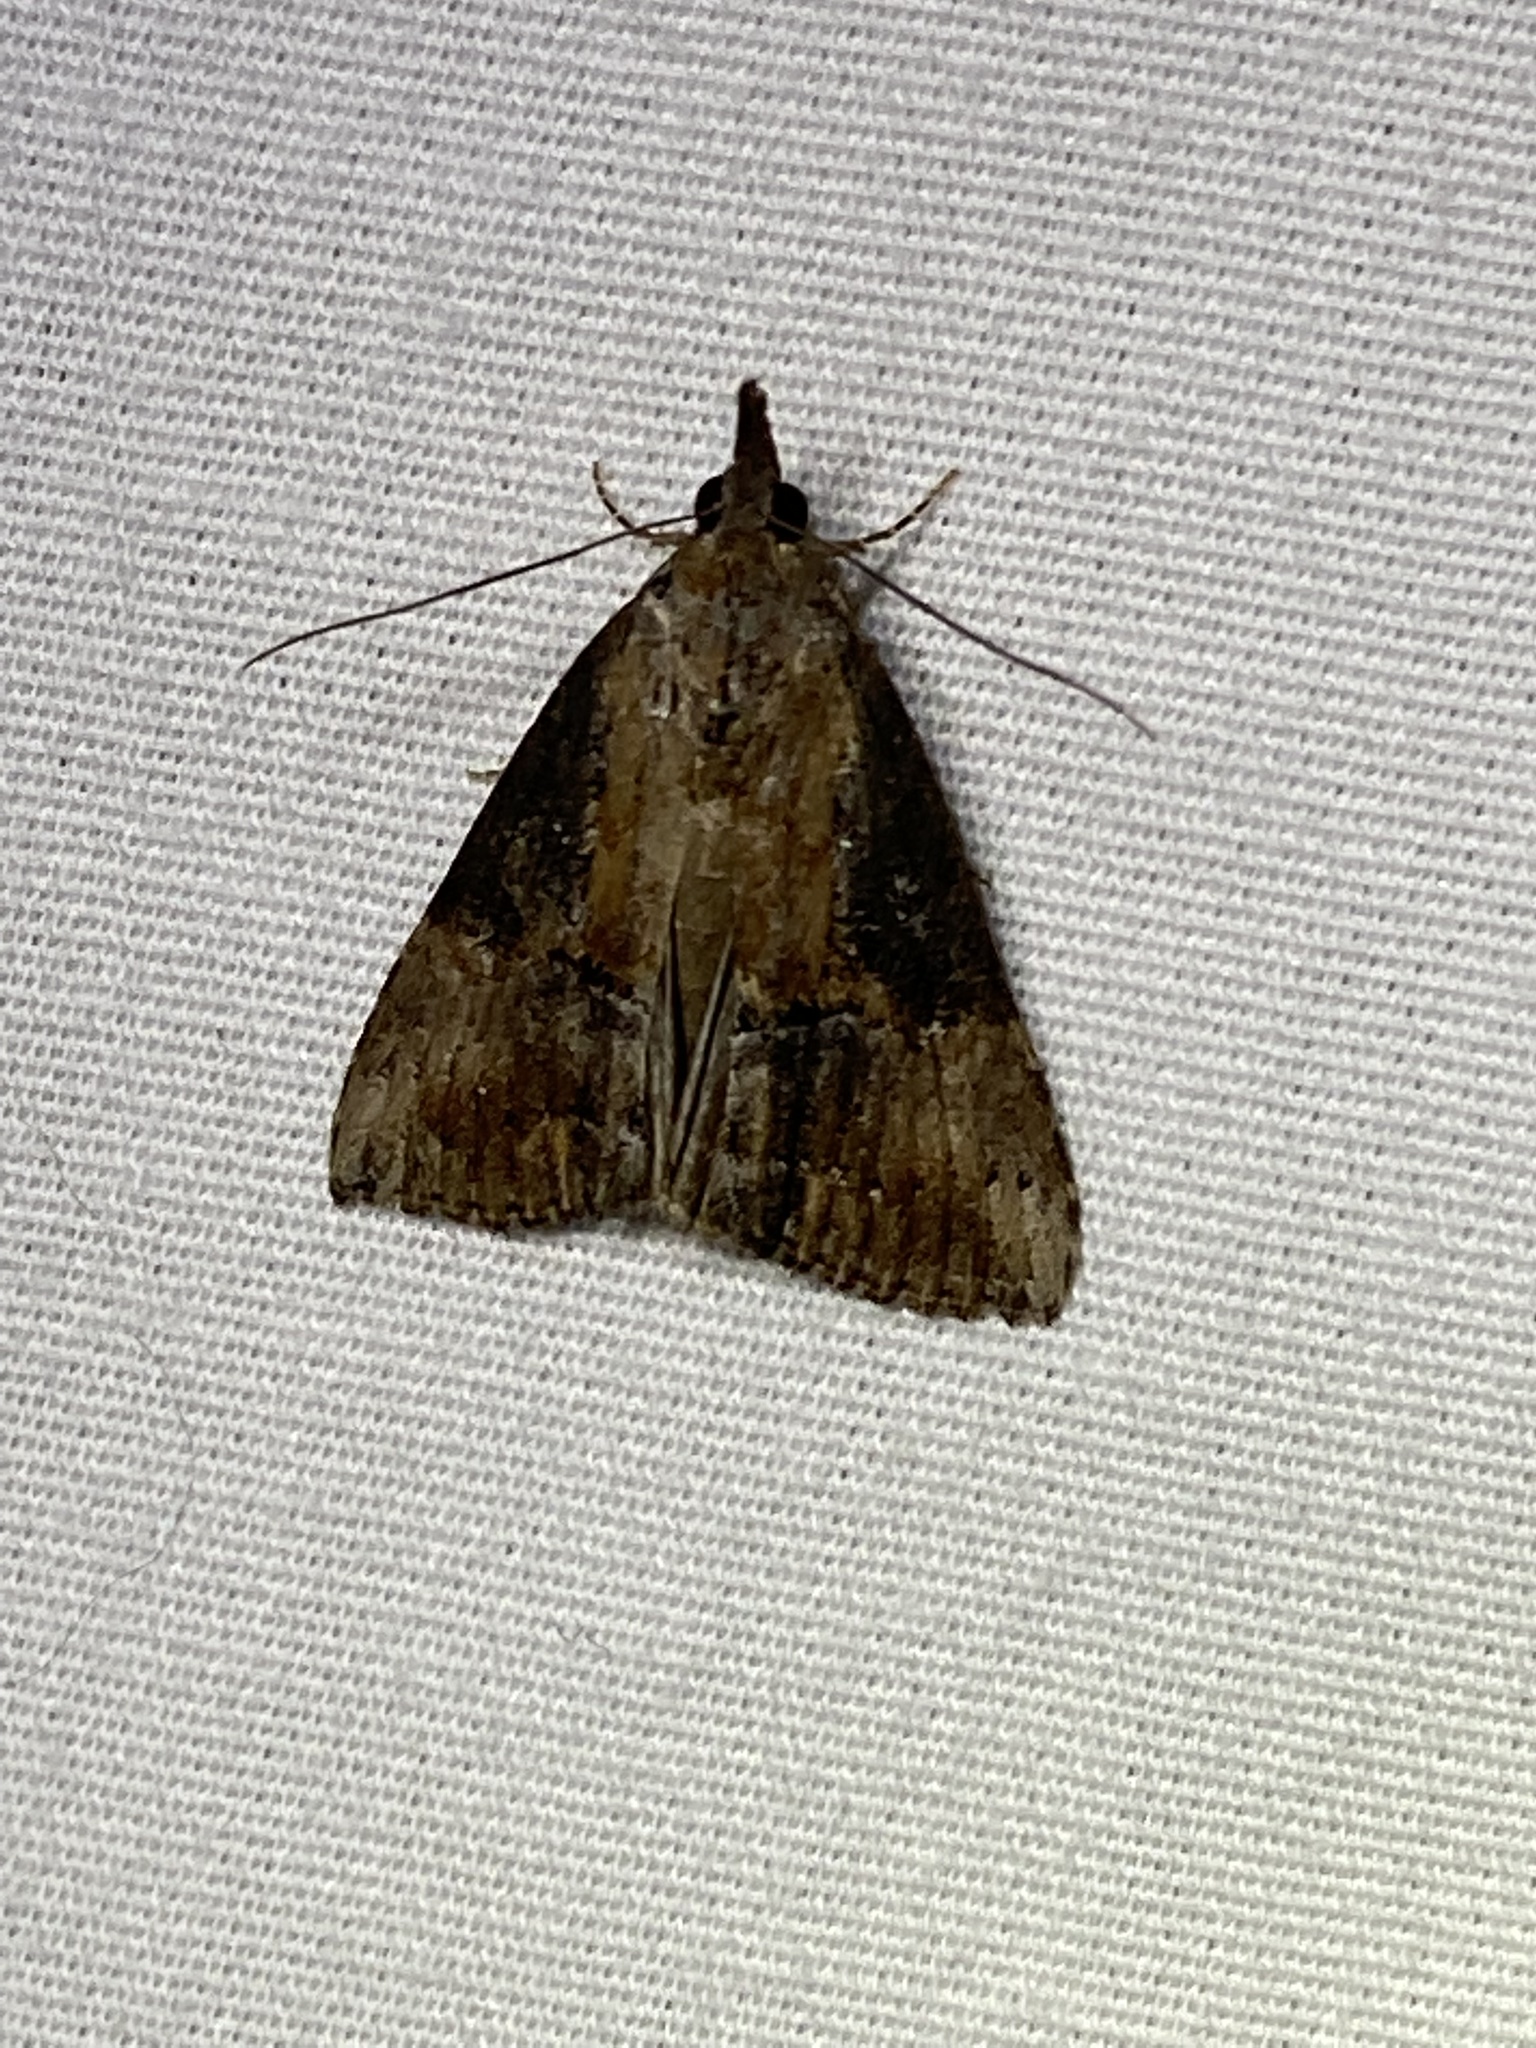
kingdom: Animalia
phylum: Arthropoda
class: Insecta
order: Lepidoptera
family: Erebidae
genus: Hypena
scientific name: Hypena scabra
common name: Green cloverworm
